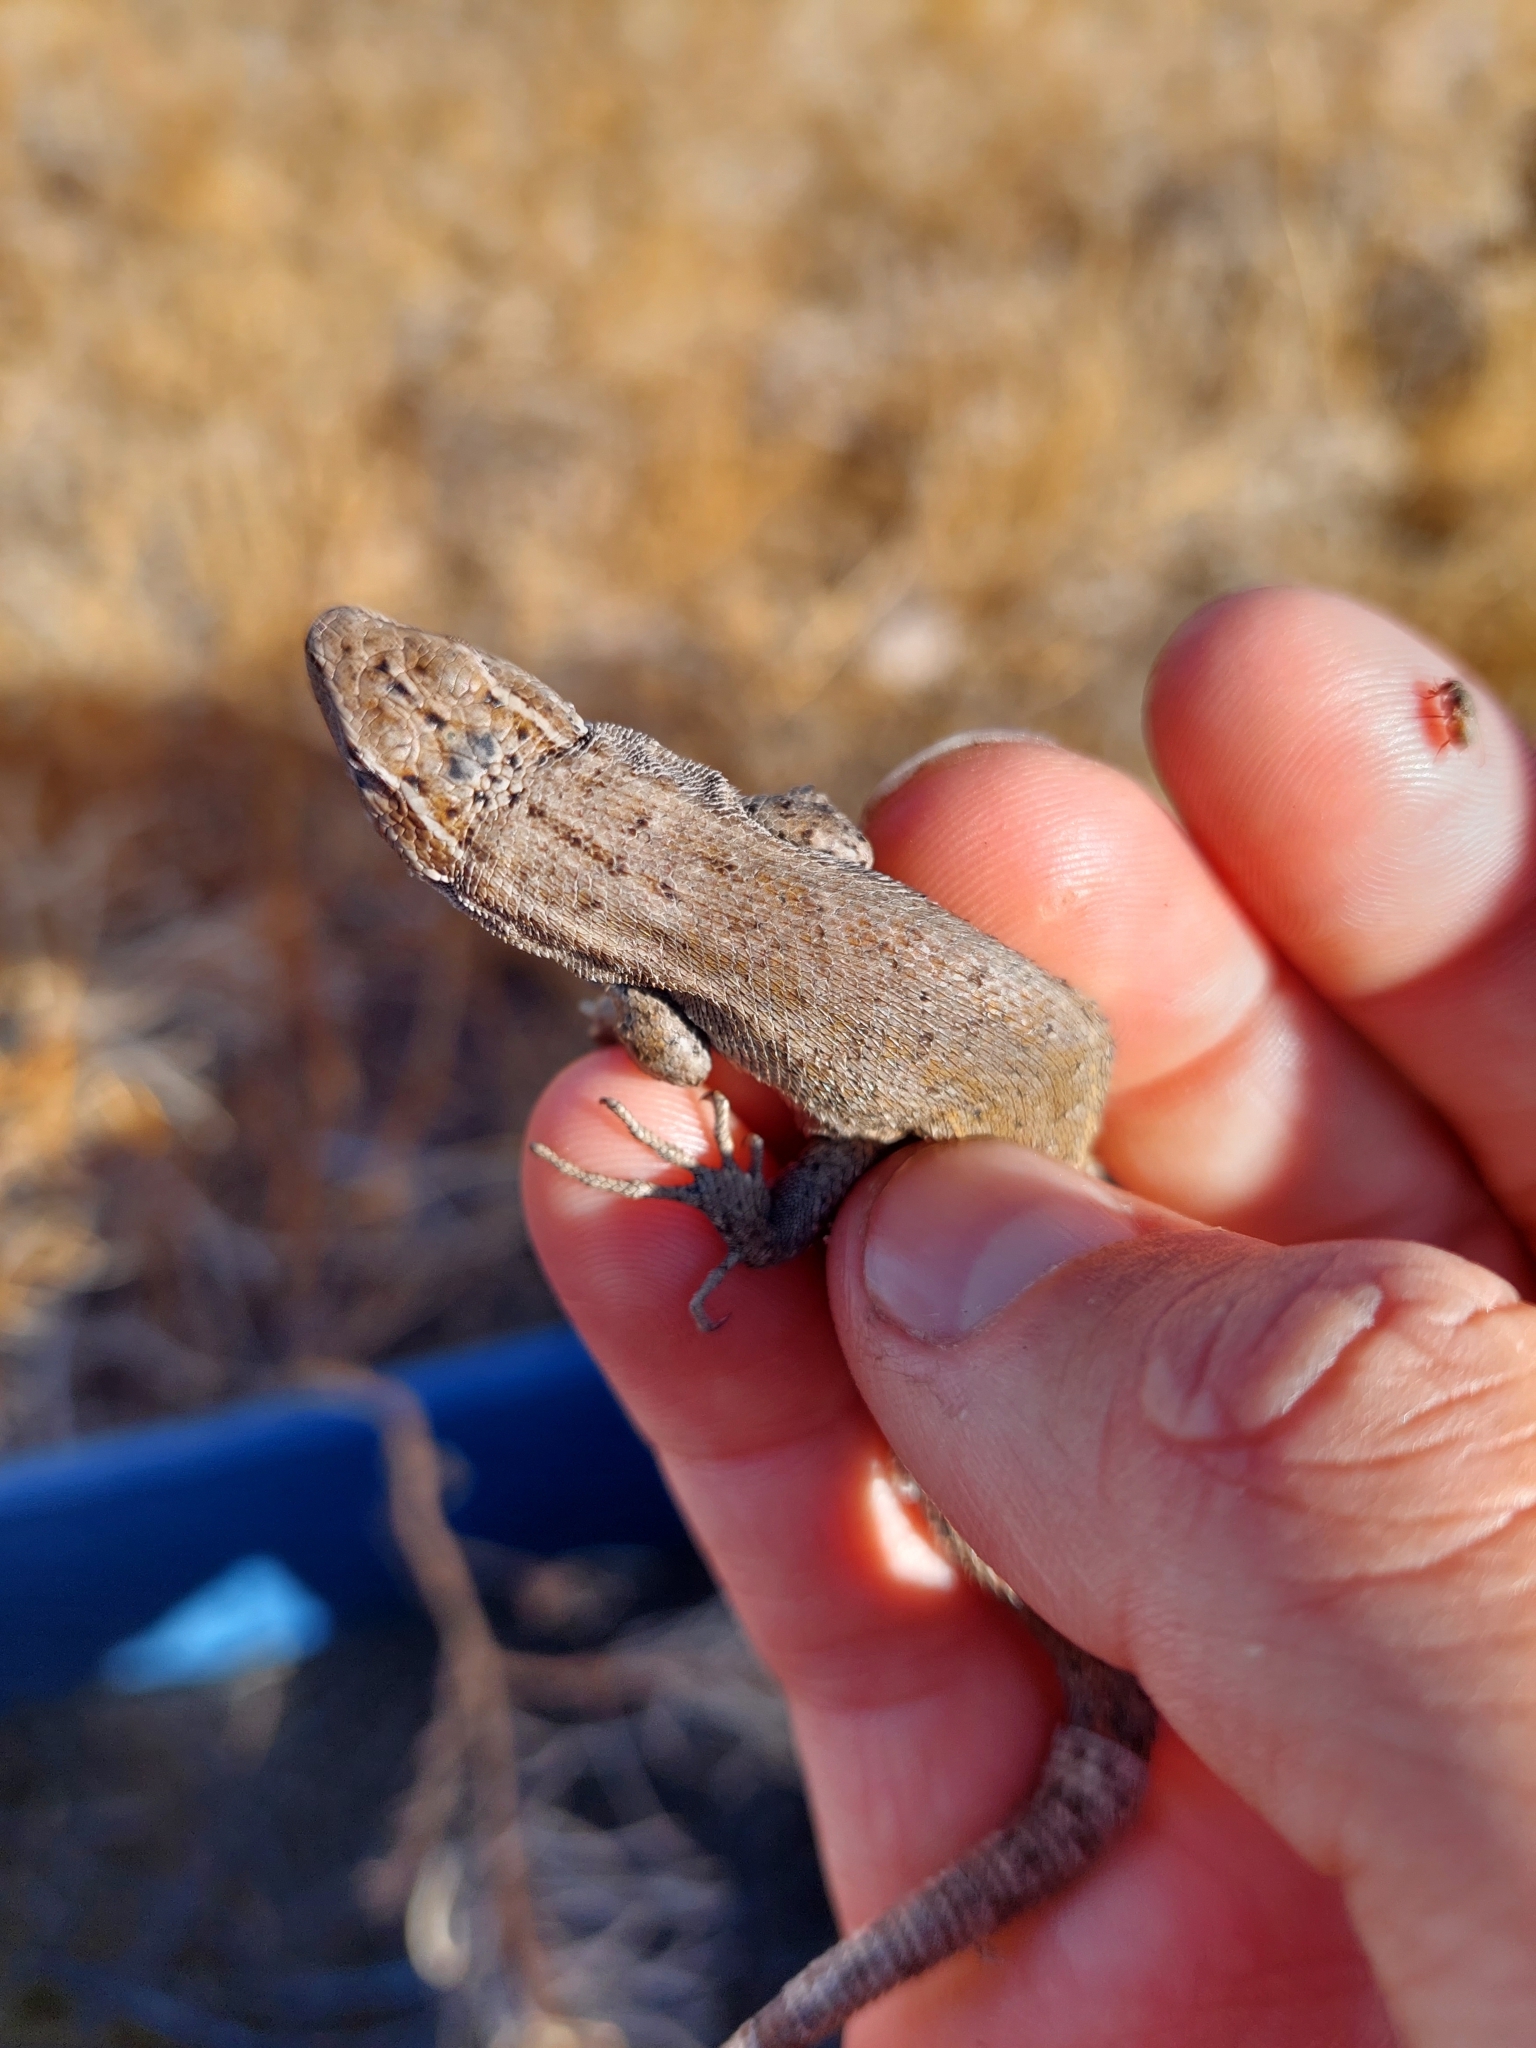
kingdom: Animalia
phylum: Chordata
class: Squamata
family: Liolaemidae
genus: Liolaemus
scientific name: Liolaemus bibronii
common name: Bibron's tree iguana
